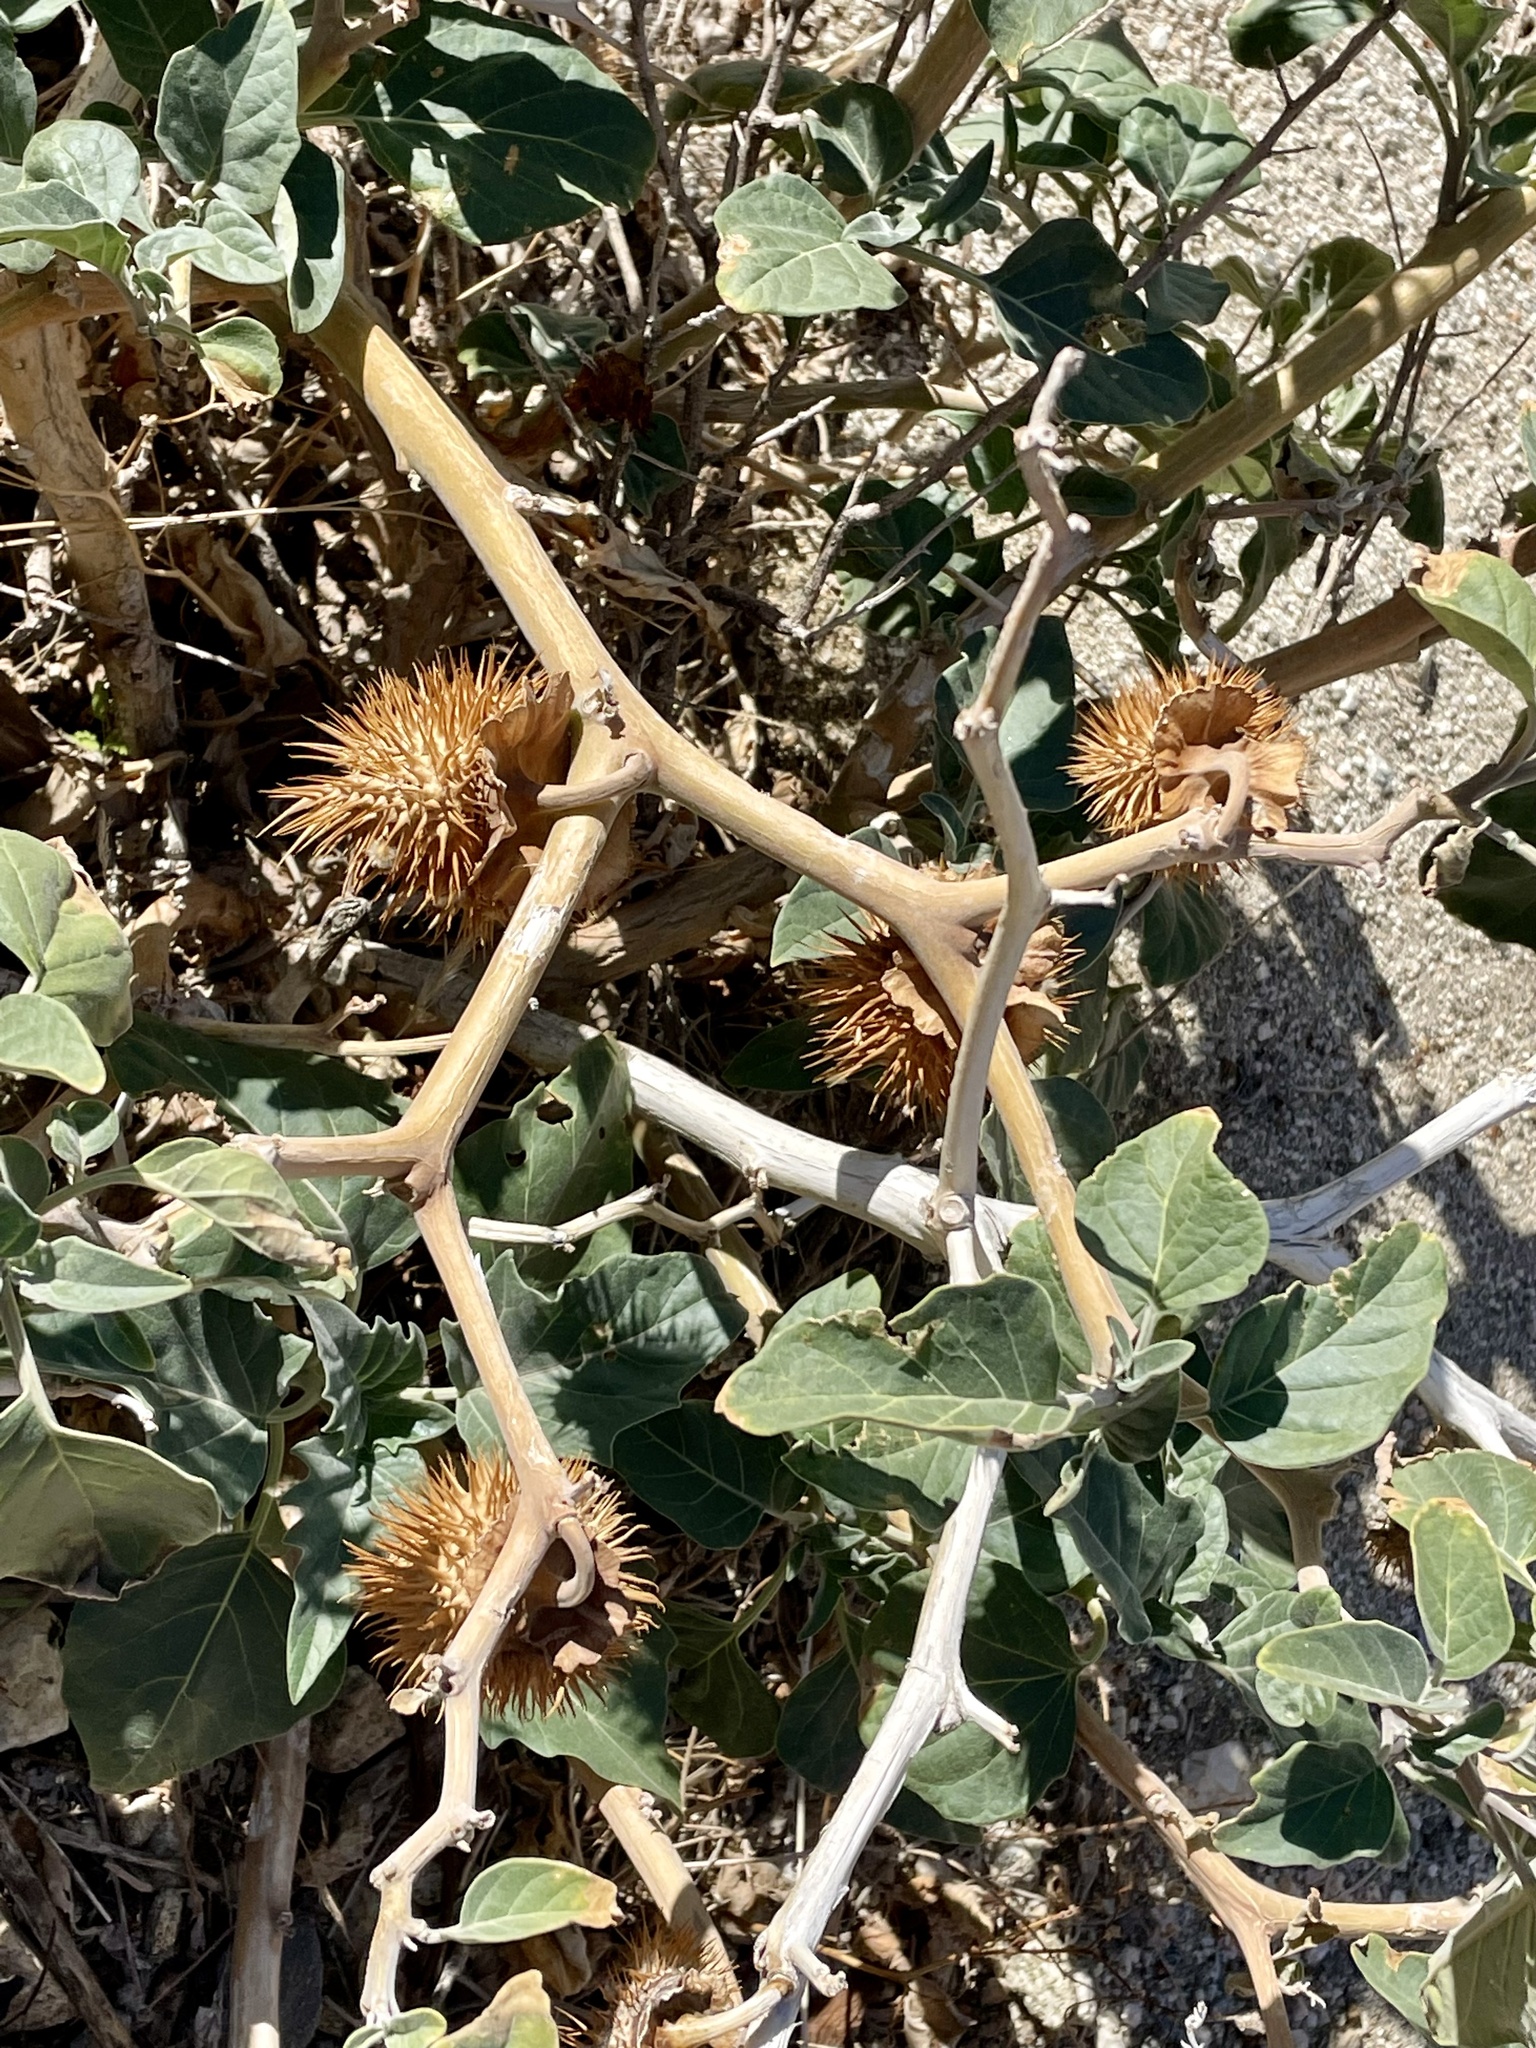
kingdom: Plantae
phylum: Tracheophyta
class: Magnoliopsida
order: Solanales
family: Solanaceae
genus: Datura
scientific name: Datura wrightii
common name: Sacred thorn-apple
